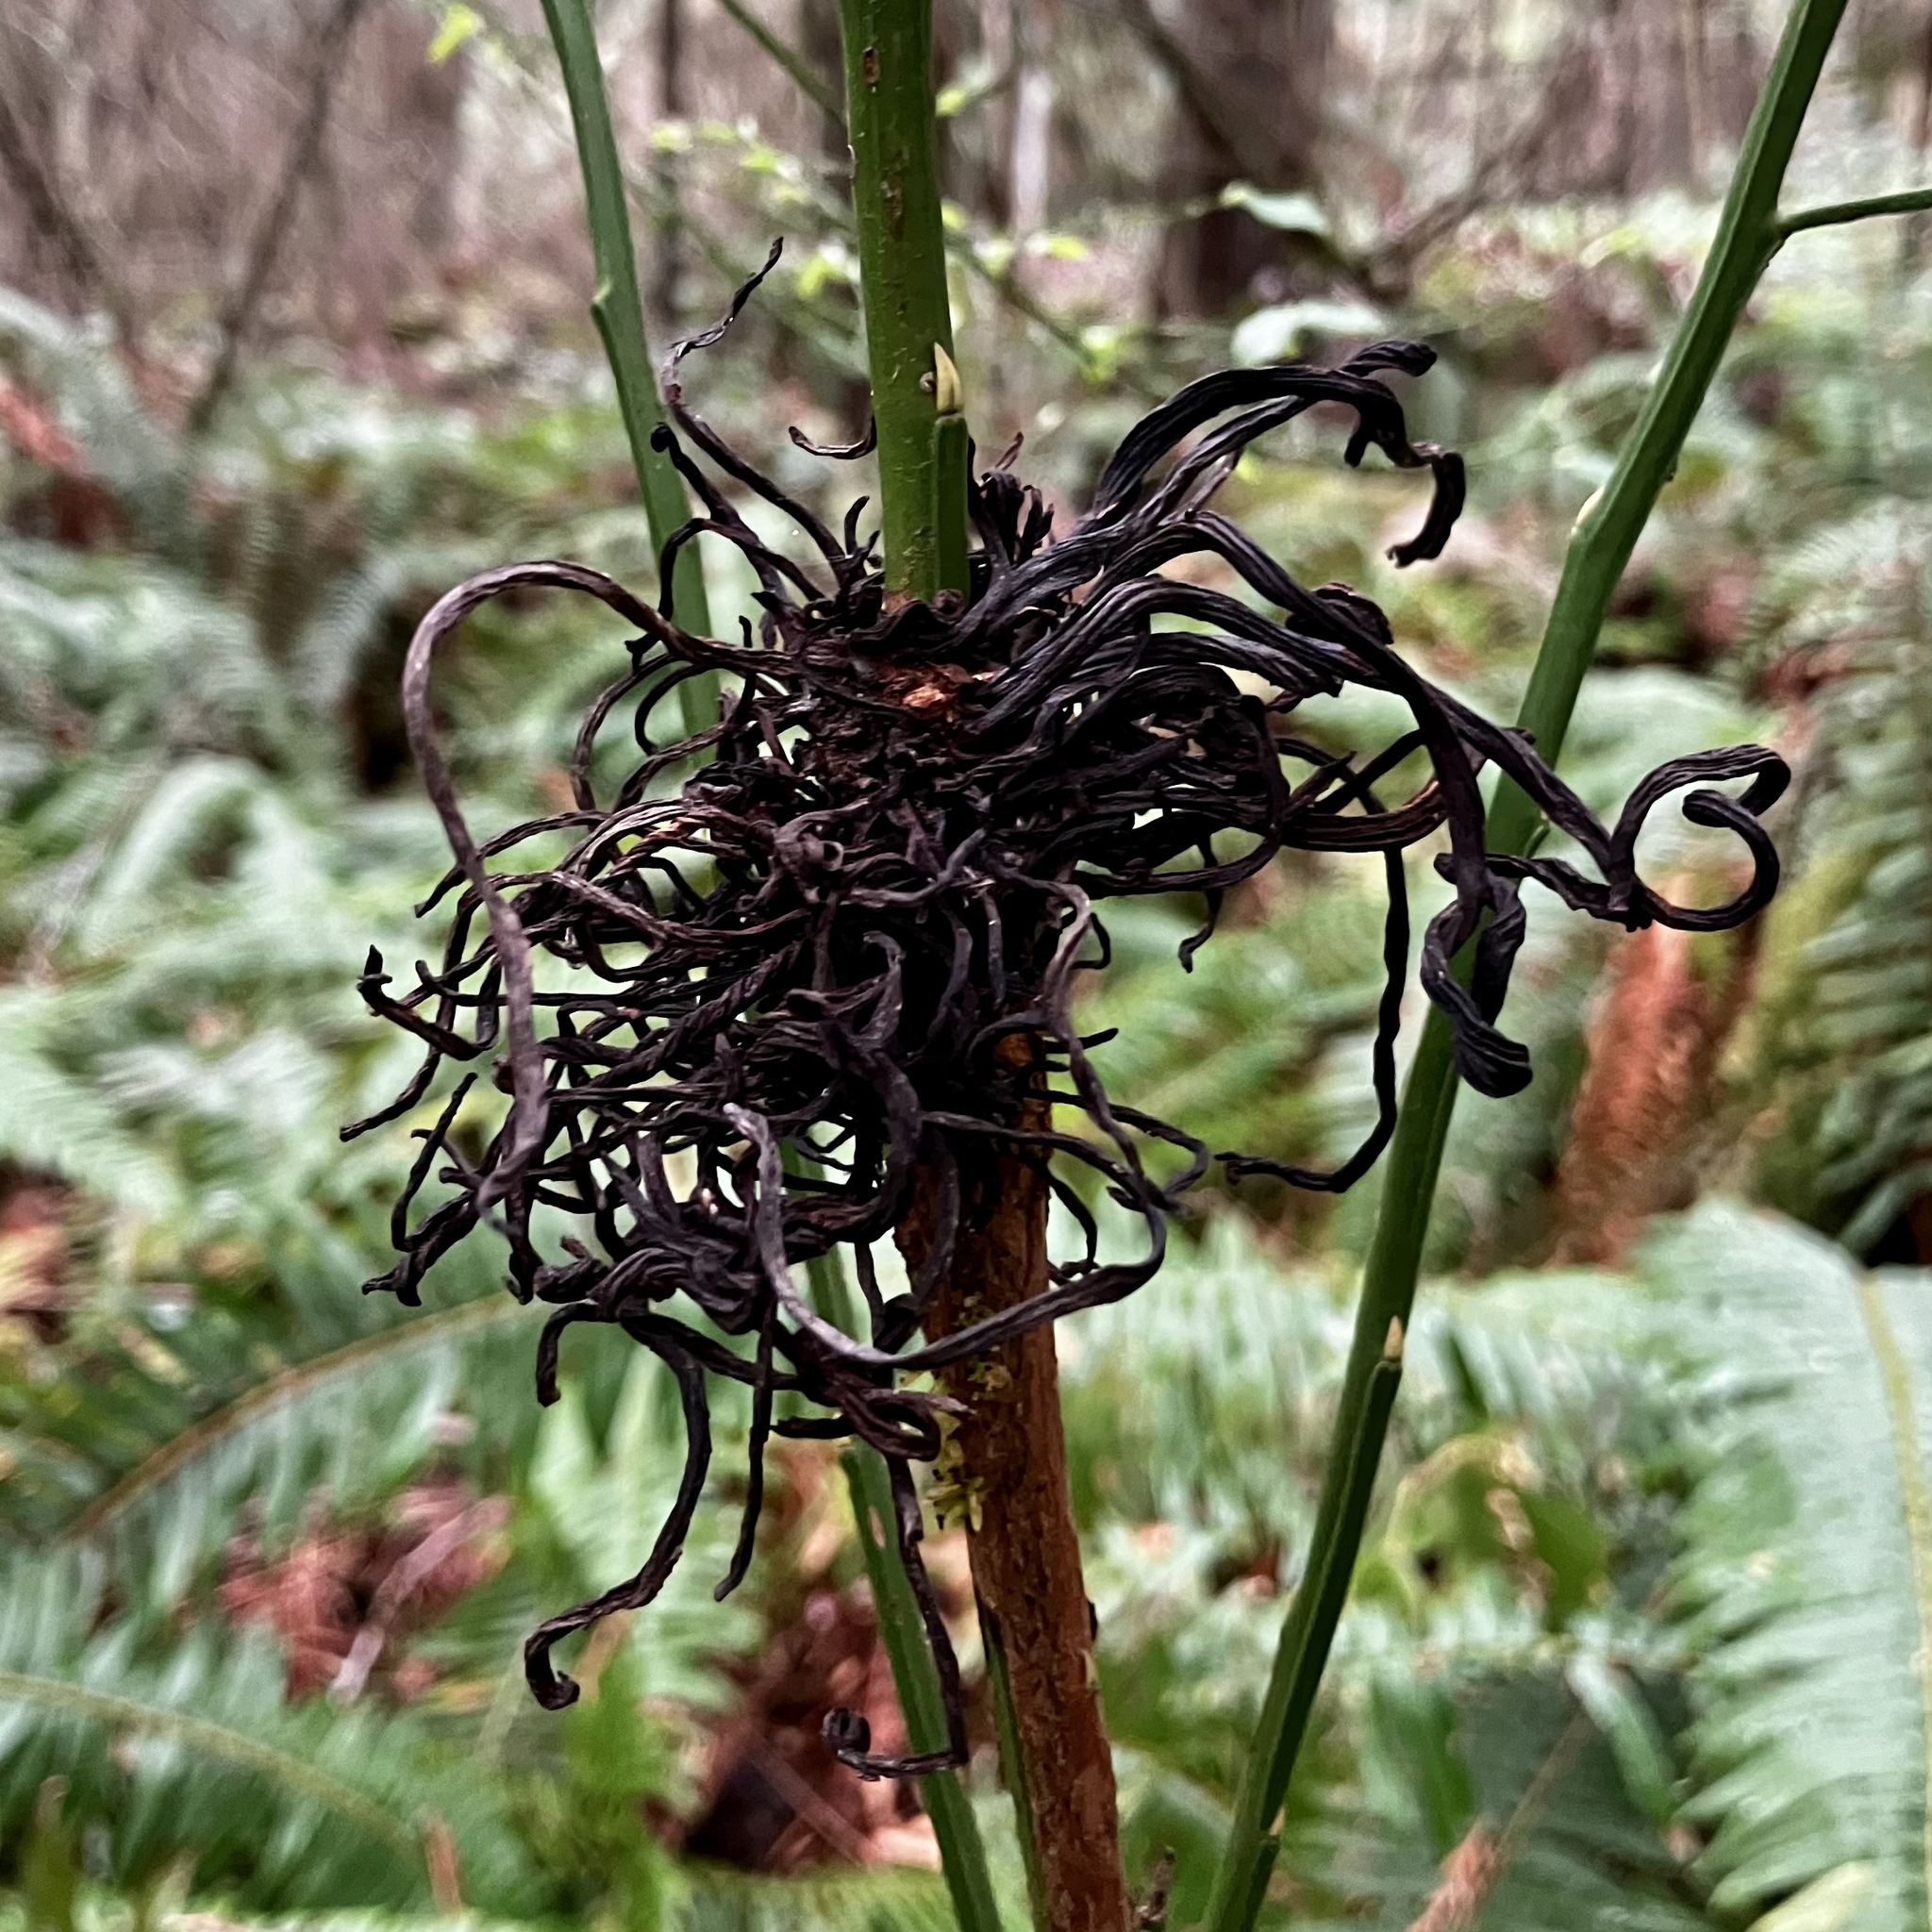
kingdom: Fungi
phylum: Basidiomycota
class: Exobasidiomycetes
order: Exobasidiales
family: Exobasidiaceae
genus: Exobasidium
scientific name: Exobasidium parvifolii
